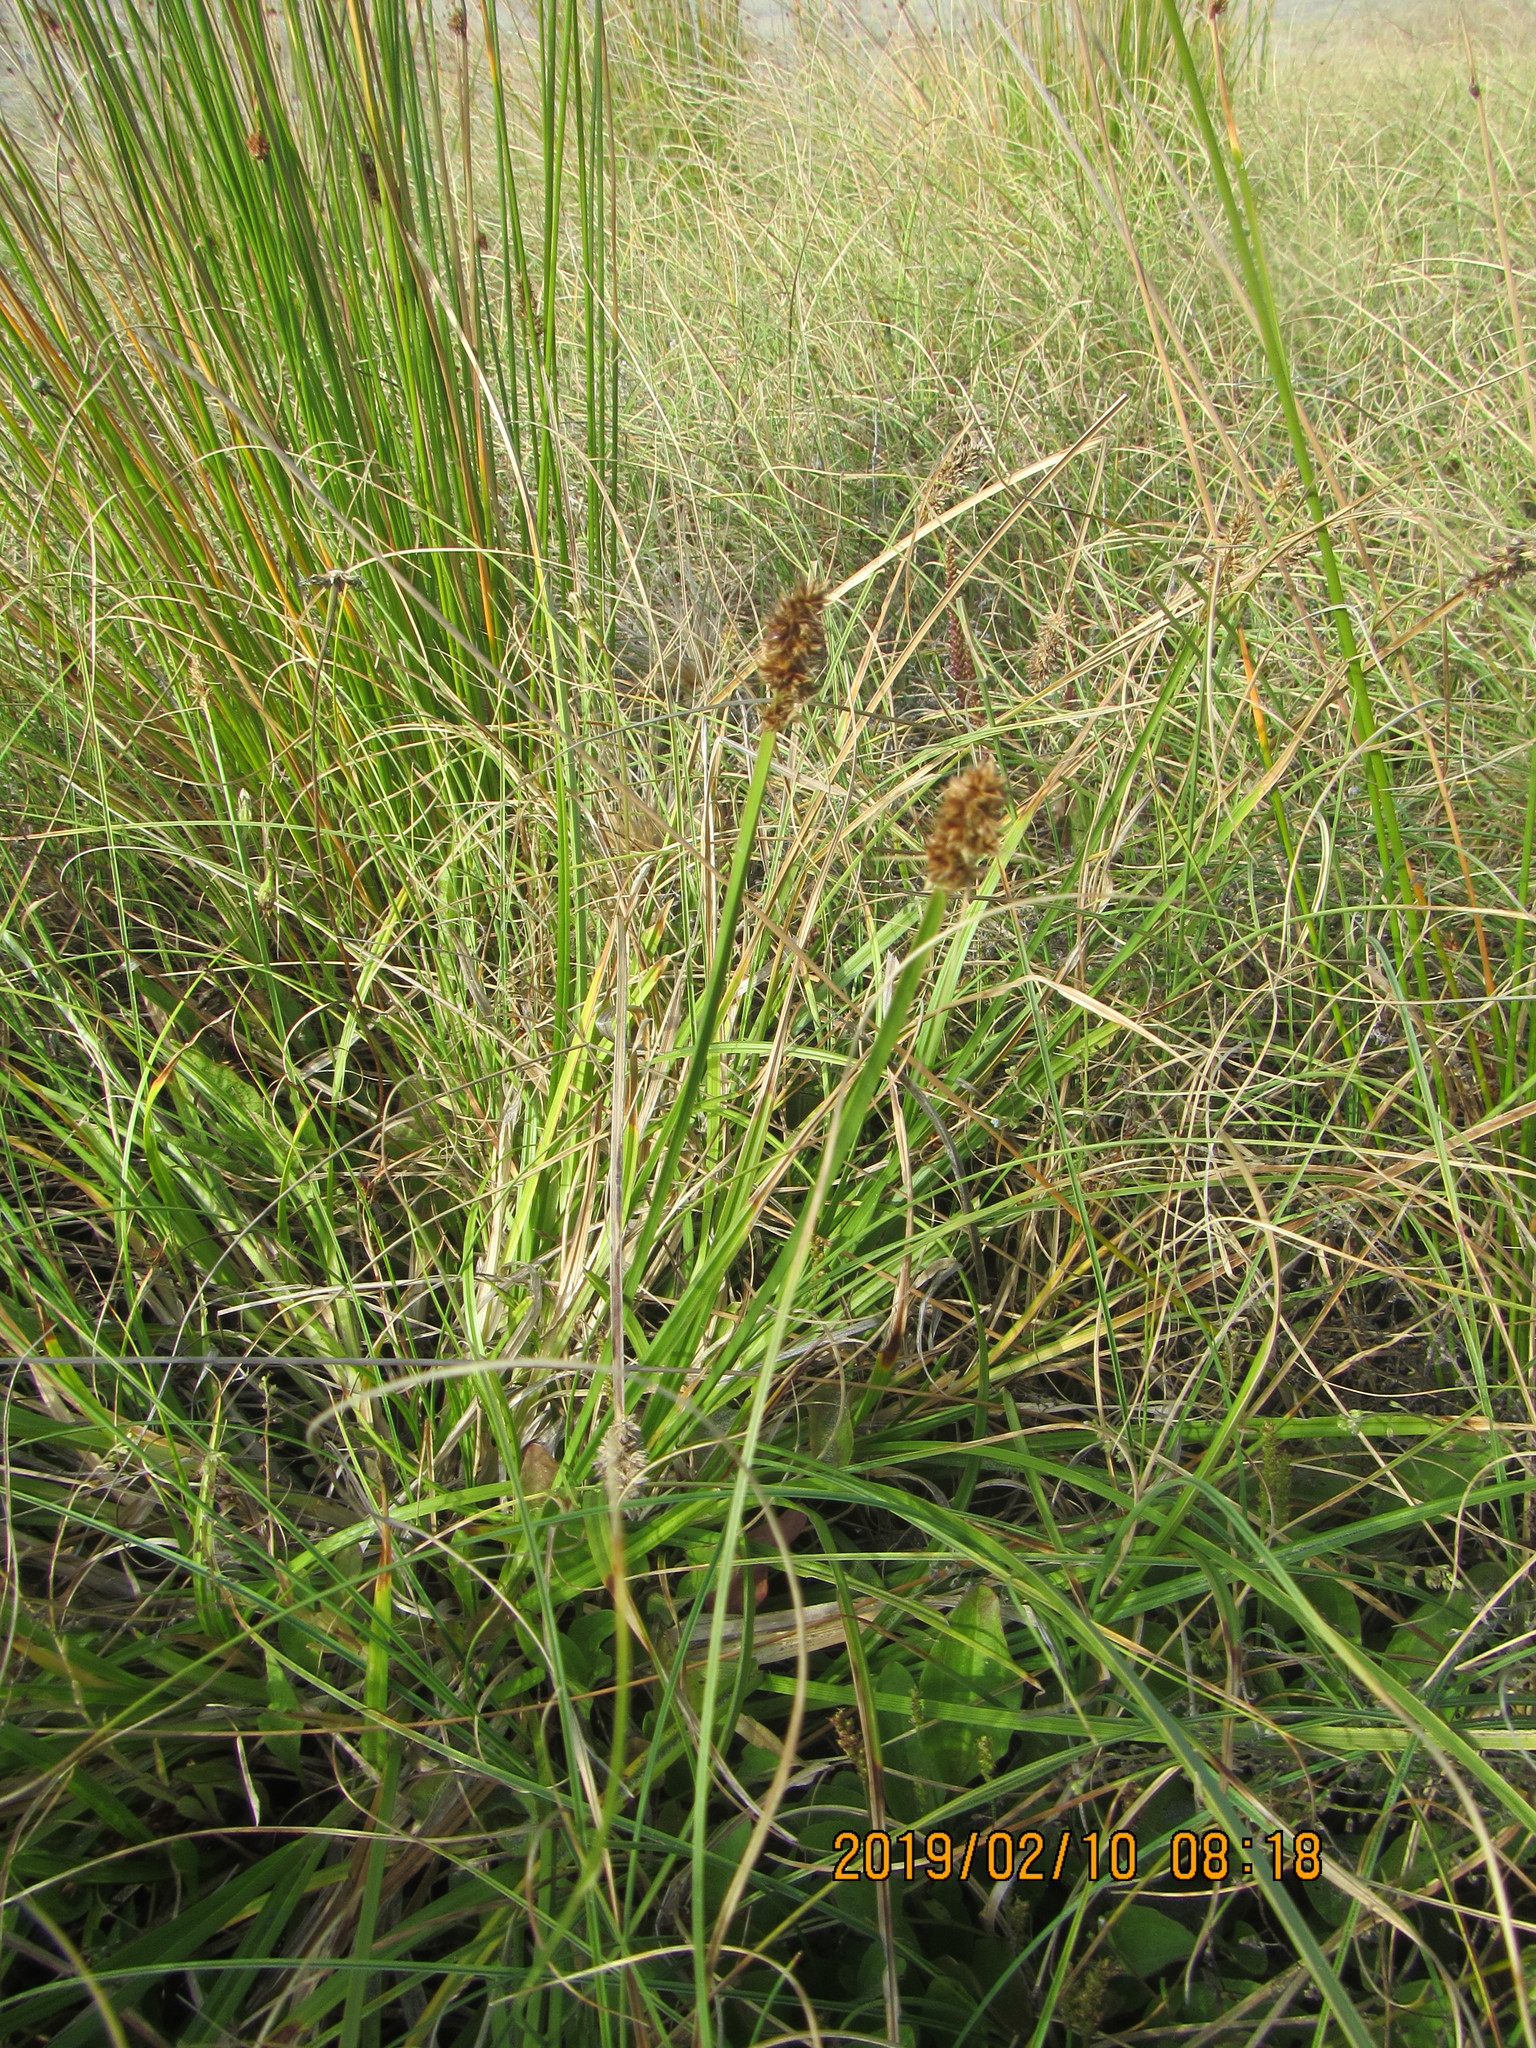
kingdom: Plantae
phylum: Tracheophyta
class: Liliopsida
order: Poales
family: Cyperaceae
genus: Carex
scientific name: Carex otrubae
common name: False fox-sedge
